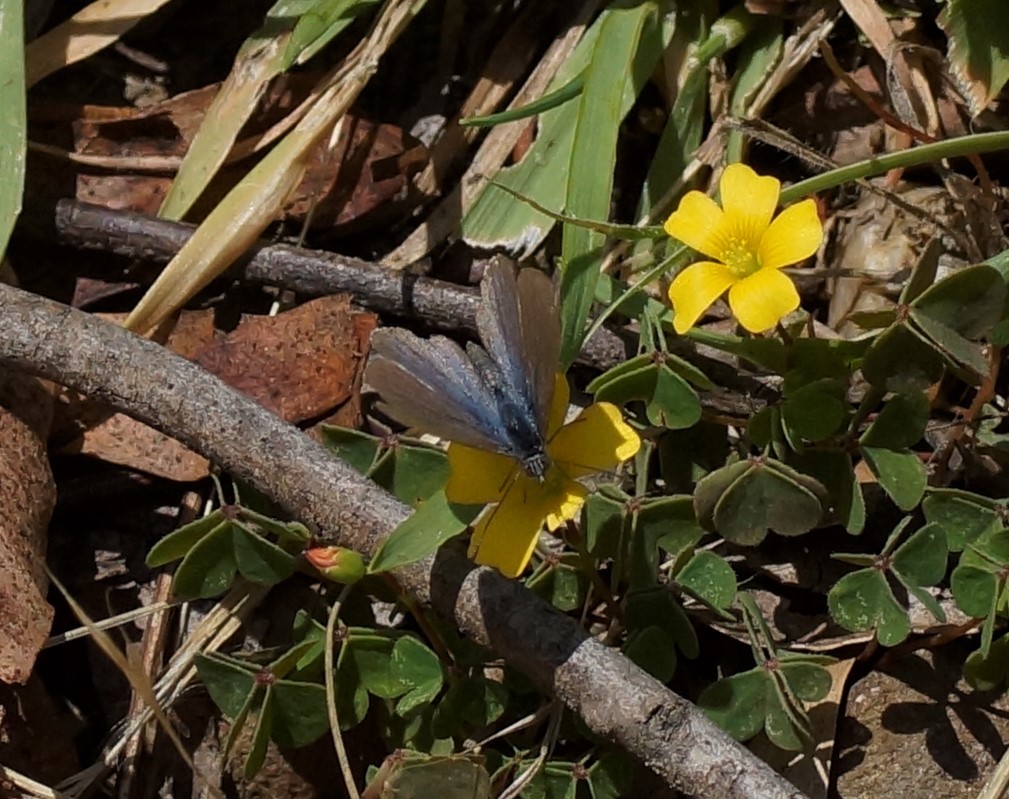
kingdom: Animalia
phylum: Arthropoda
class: Insecta
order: Lepidoptera
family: Lycaenidae
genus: Zizina
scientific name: Zizina otis
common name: Lesser grass blue
